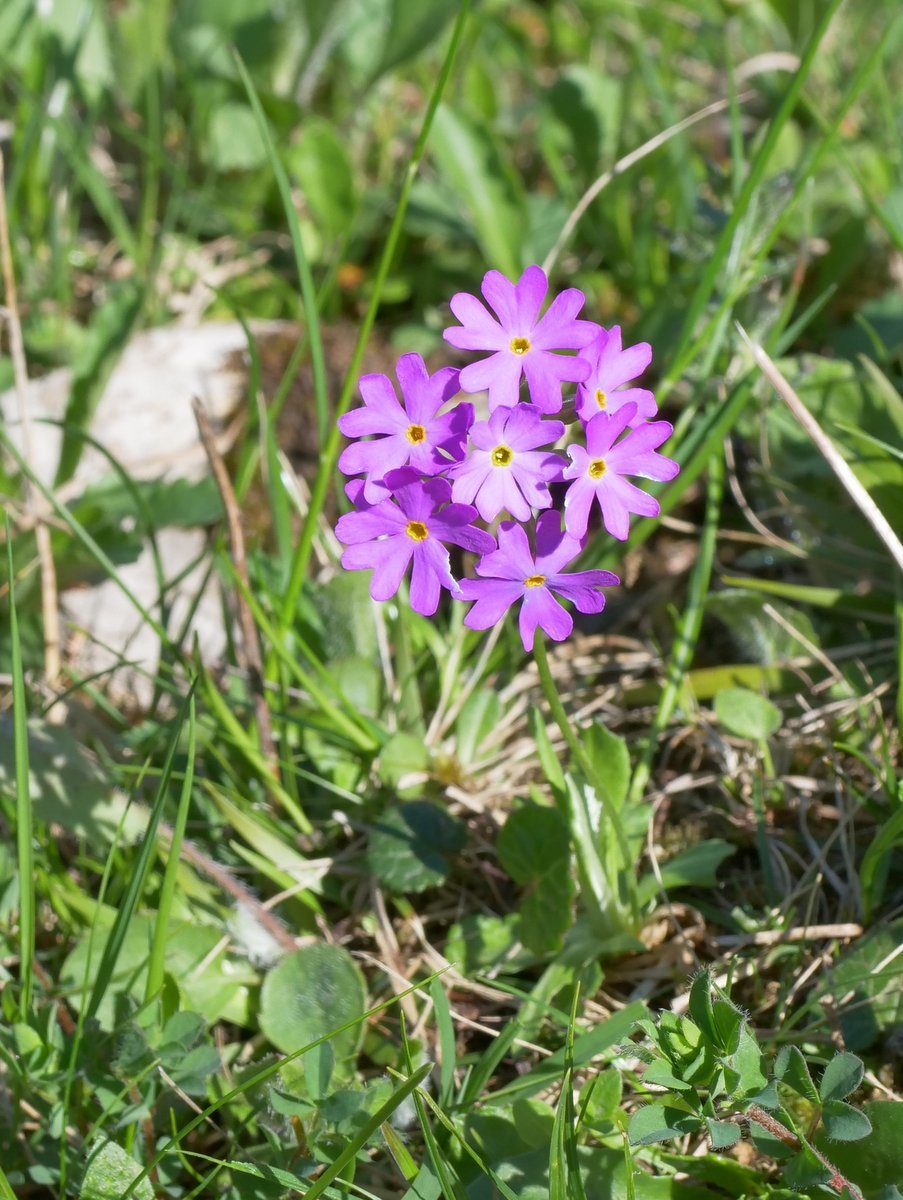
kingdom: Plantae
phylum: Tracheophyta
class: Magnoliopsida
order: Ericales
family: Primulaceae
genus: Primula
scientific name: Primula farinosa
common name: Bird's-eye primrose
